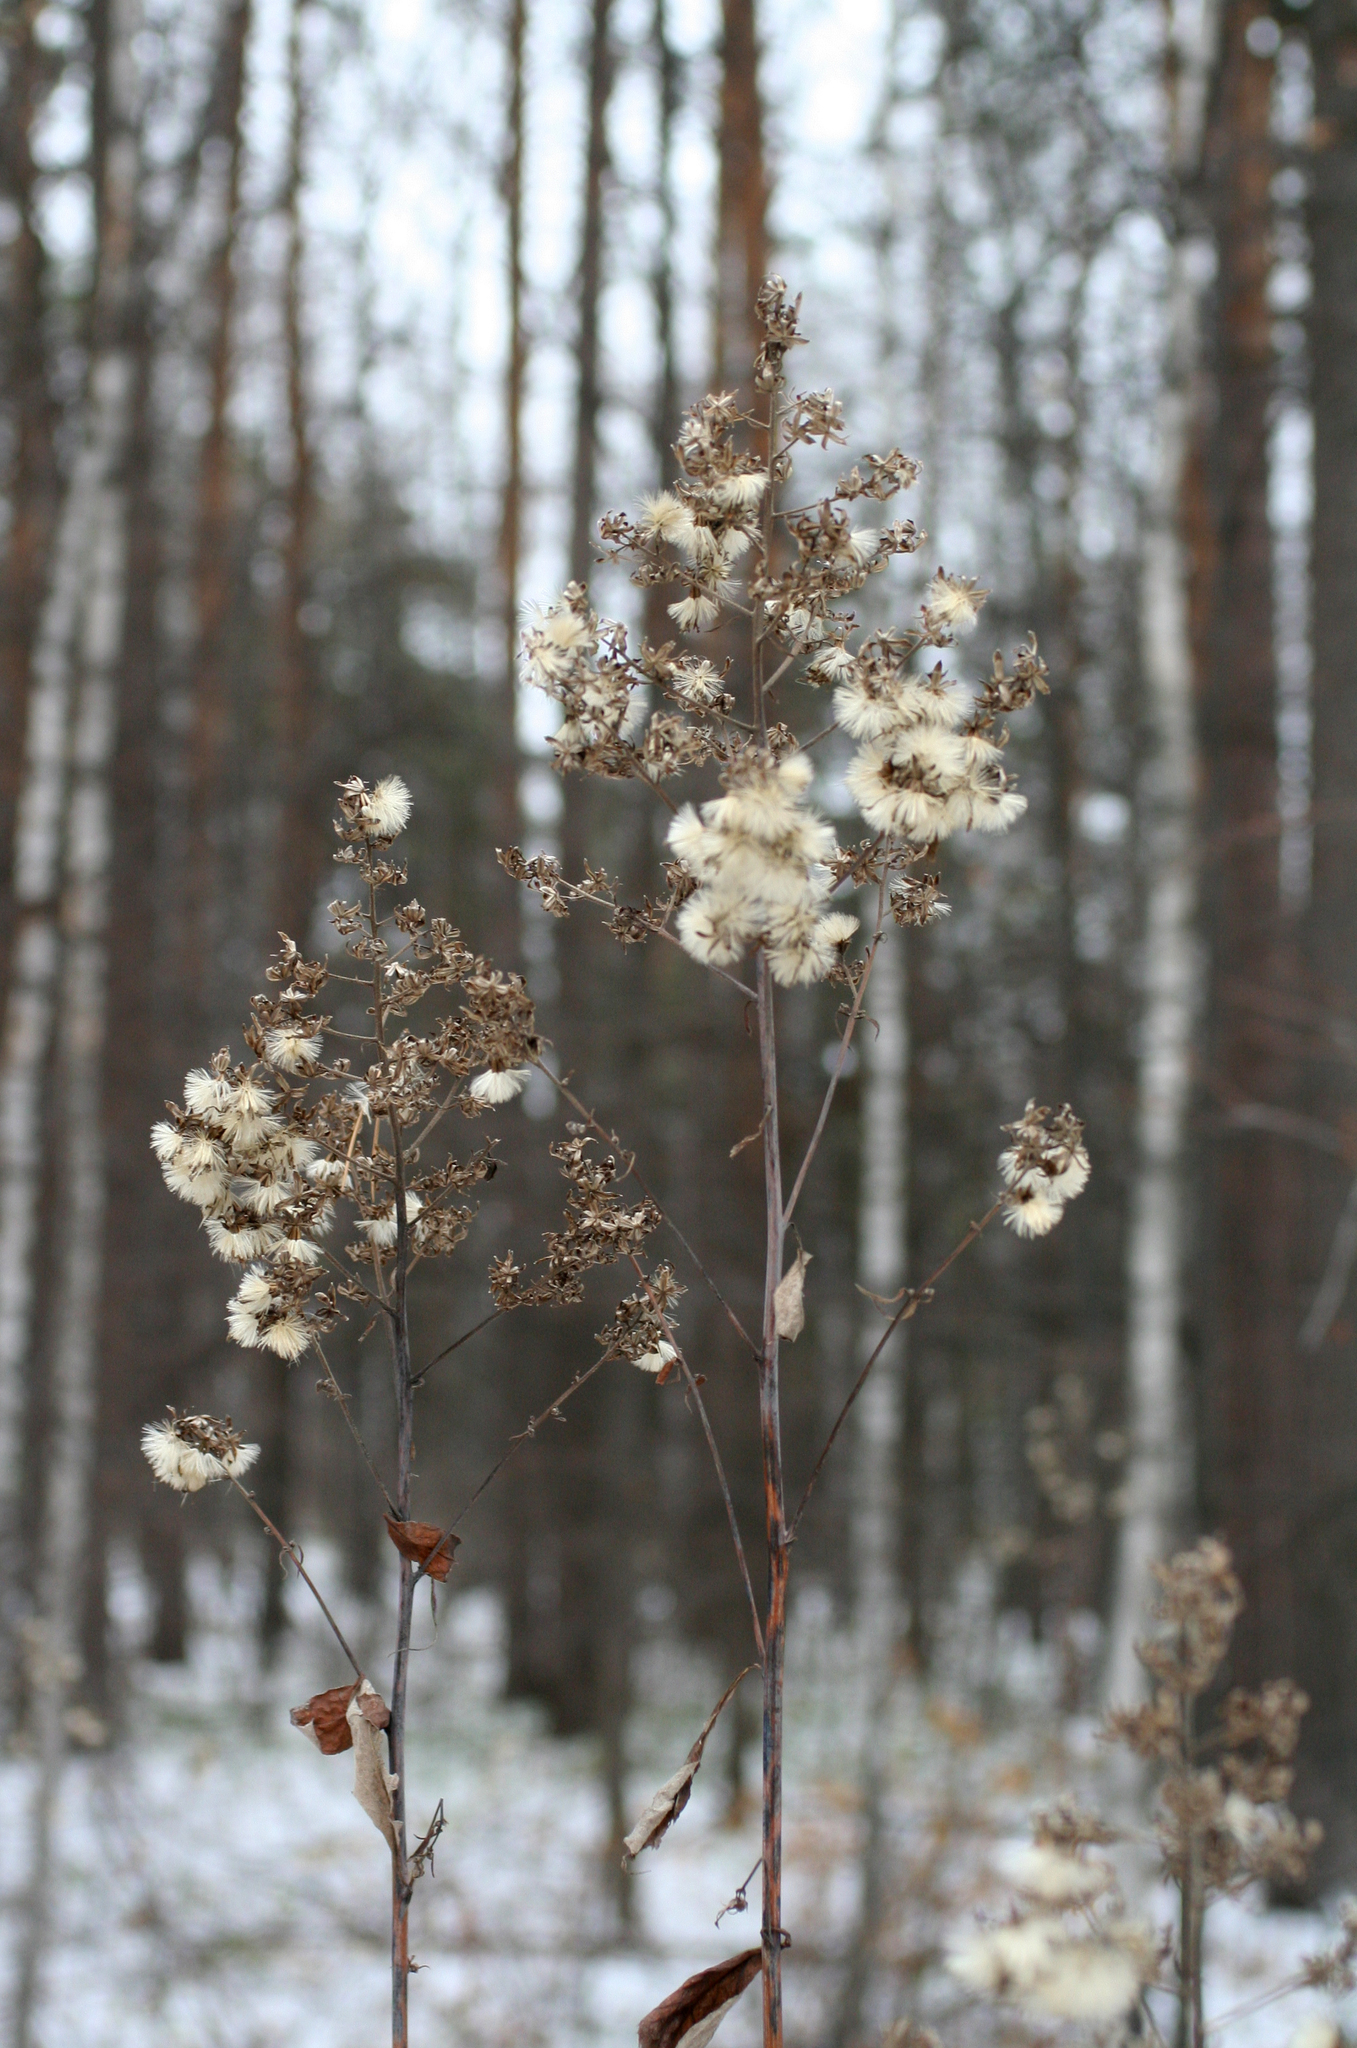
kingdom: Plantae
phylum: Tracheophyta
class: Magnoliopsida
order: Asterales
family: Asteraceae
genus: Parasenecio
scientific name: Parasenecio hastatus
